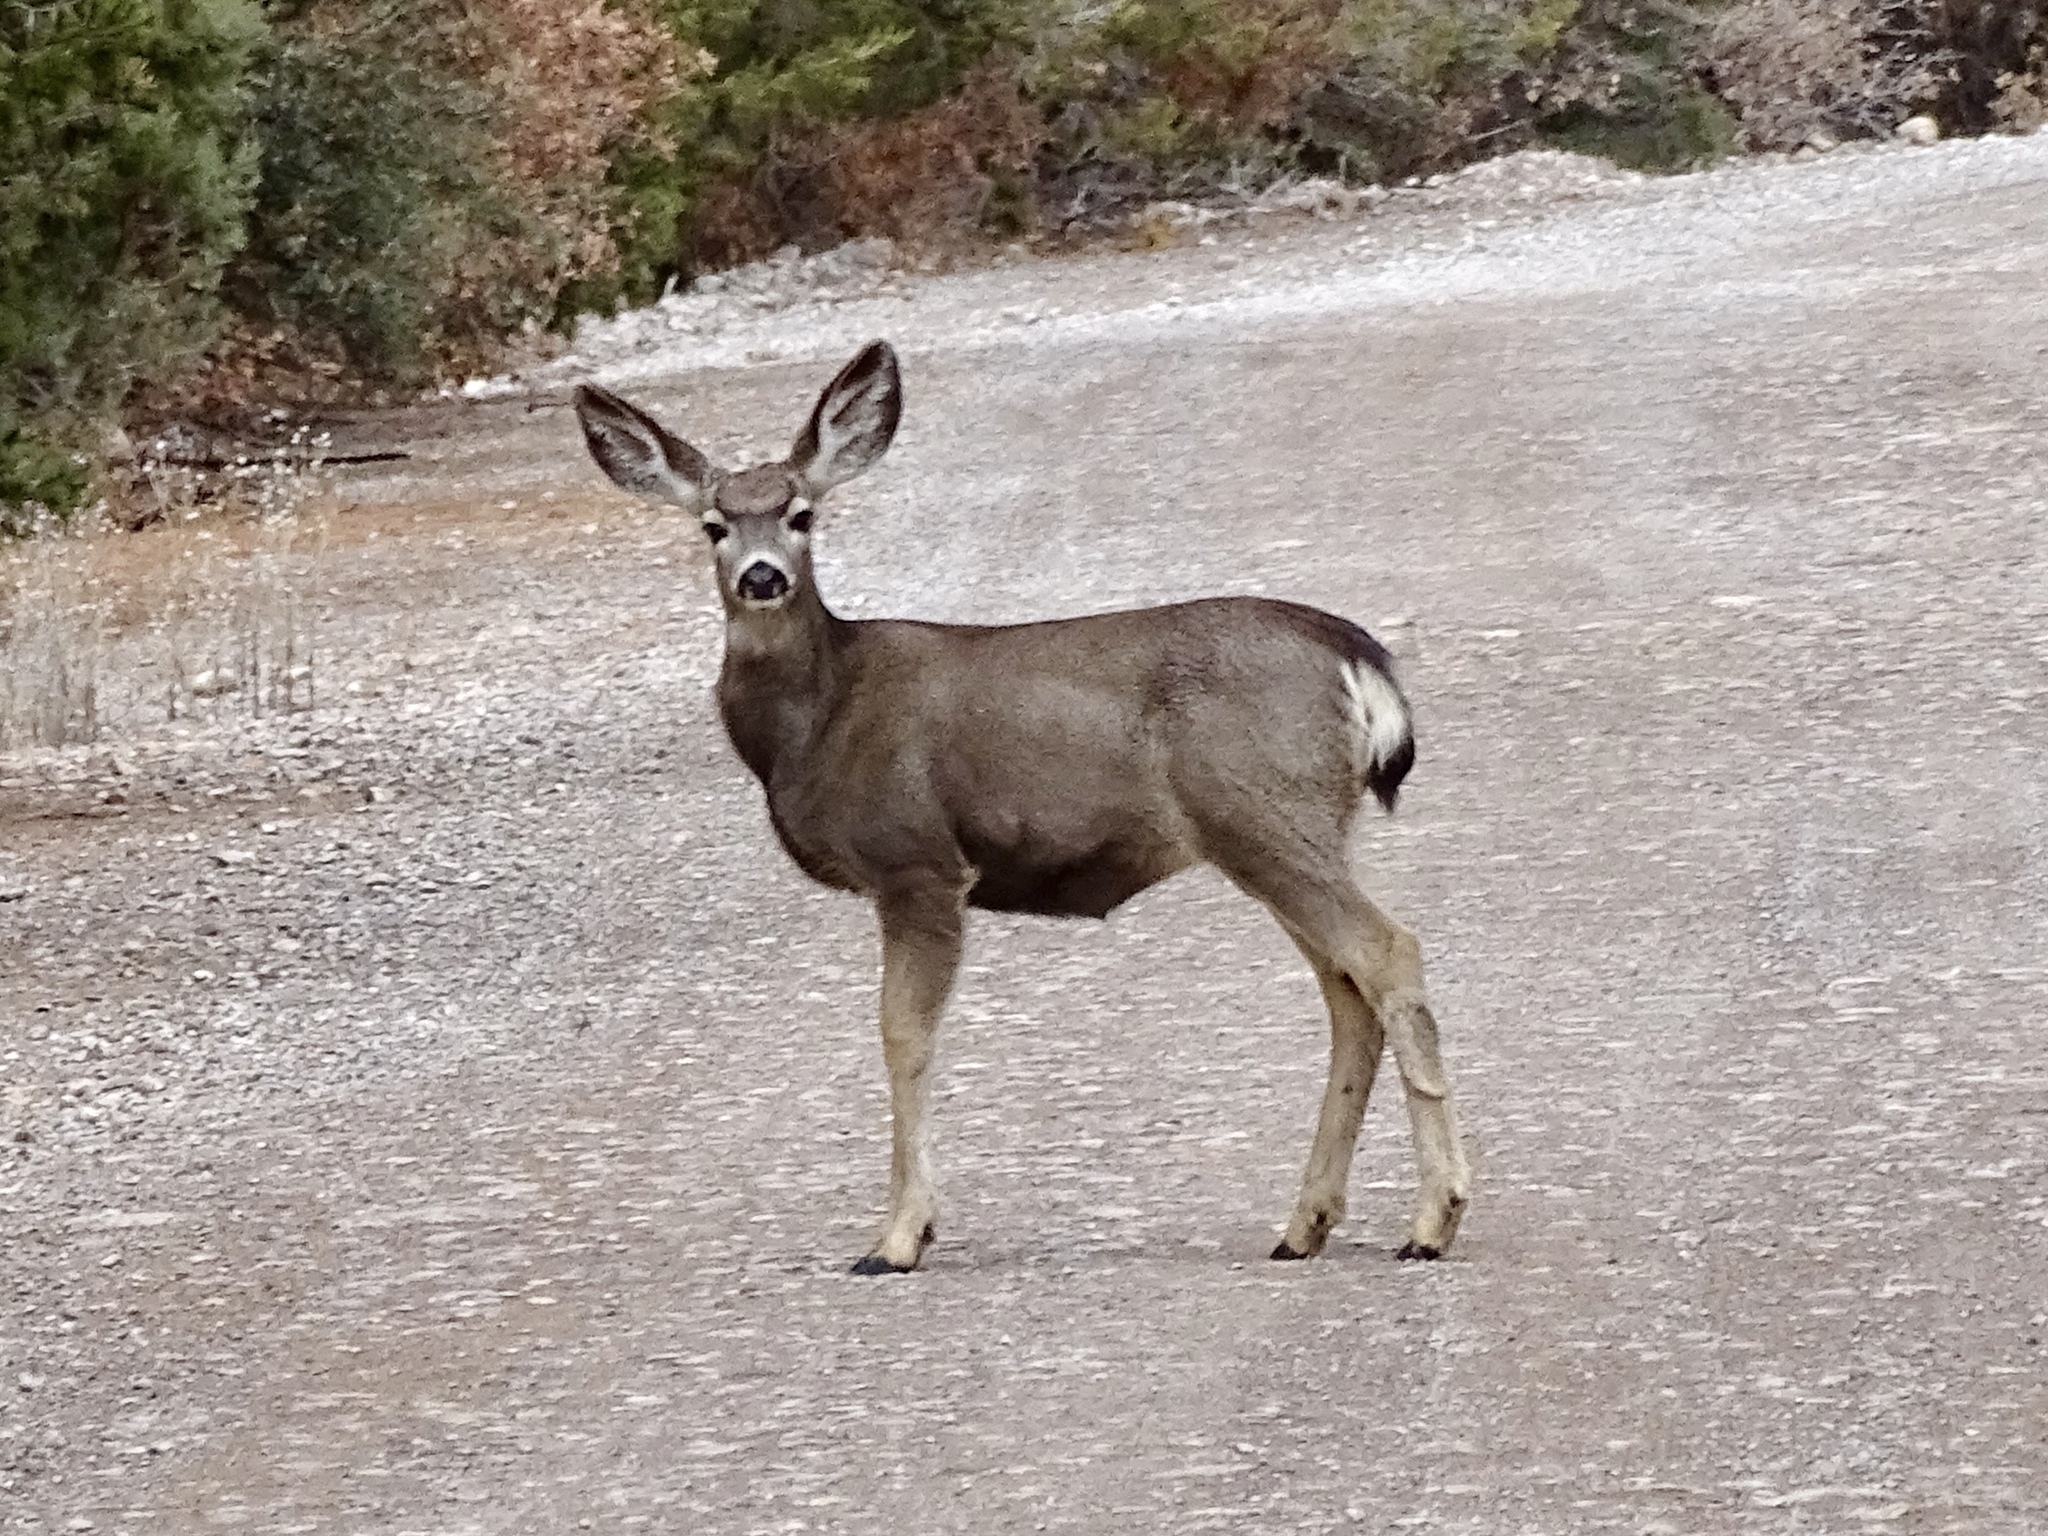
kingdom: Animalia
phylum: Chordata
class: Mammalia
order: Artiodactyla
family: Cervidae
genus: Odocoileus
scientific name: Odocoileus hemionus
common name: Mule deer
